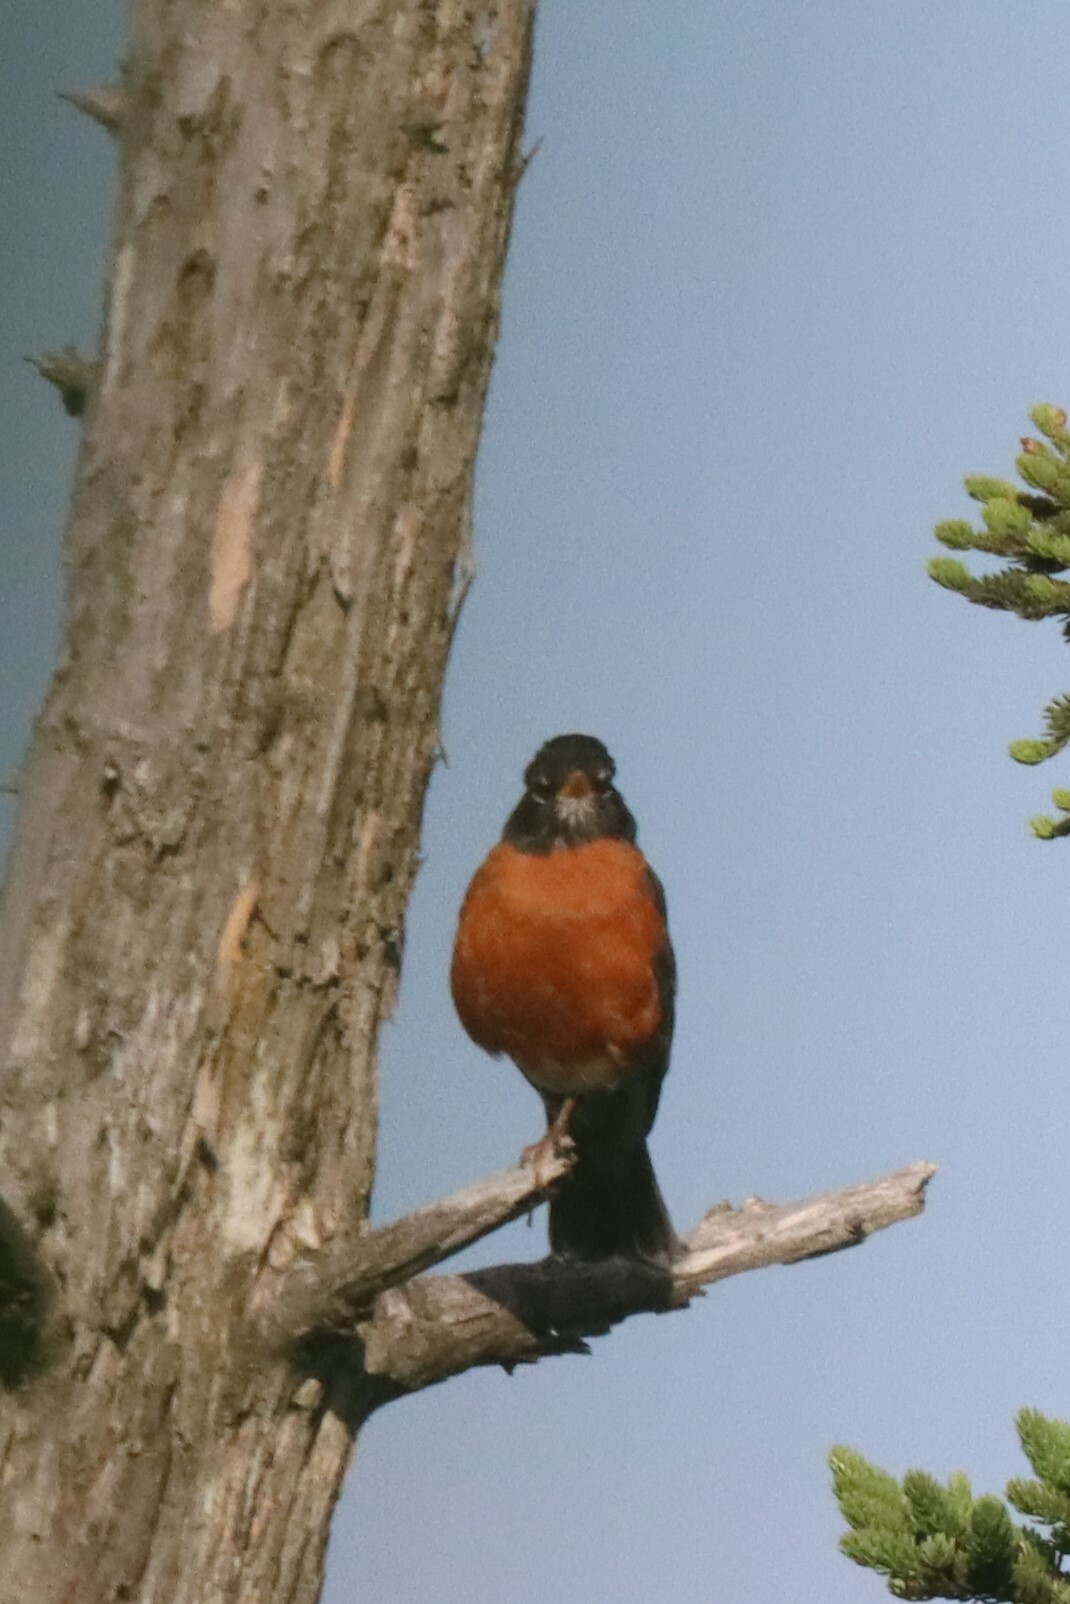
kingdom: Animalia
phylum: Chordata
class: Aves
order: Passeriformes
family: Turdidae
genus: Turdus
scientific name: Turdus migratorius
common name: American robin
